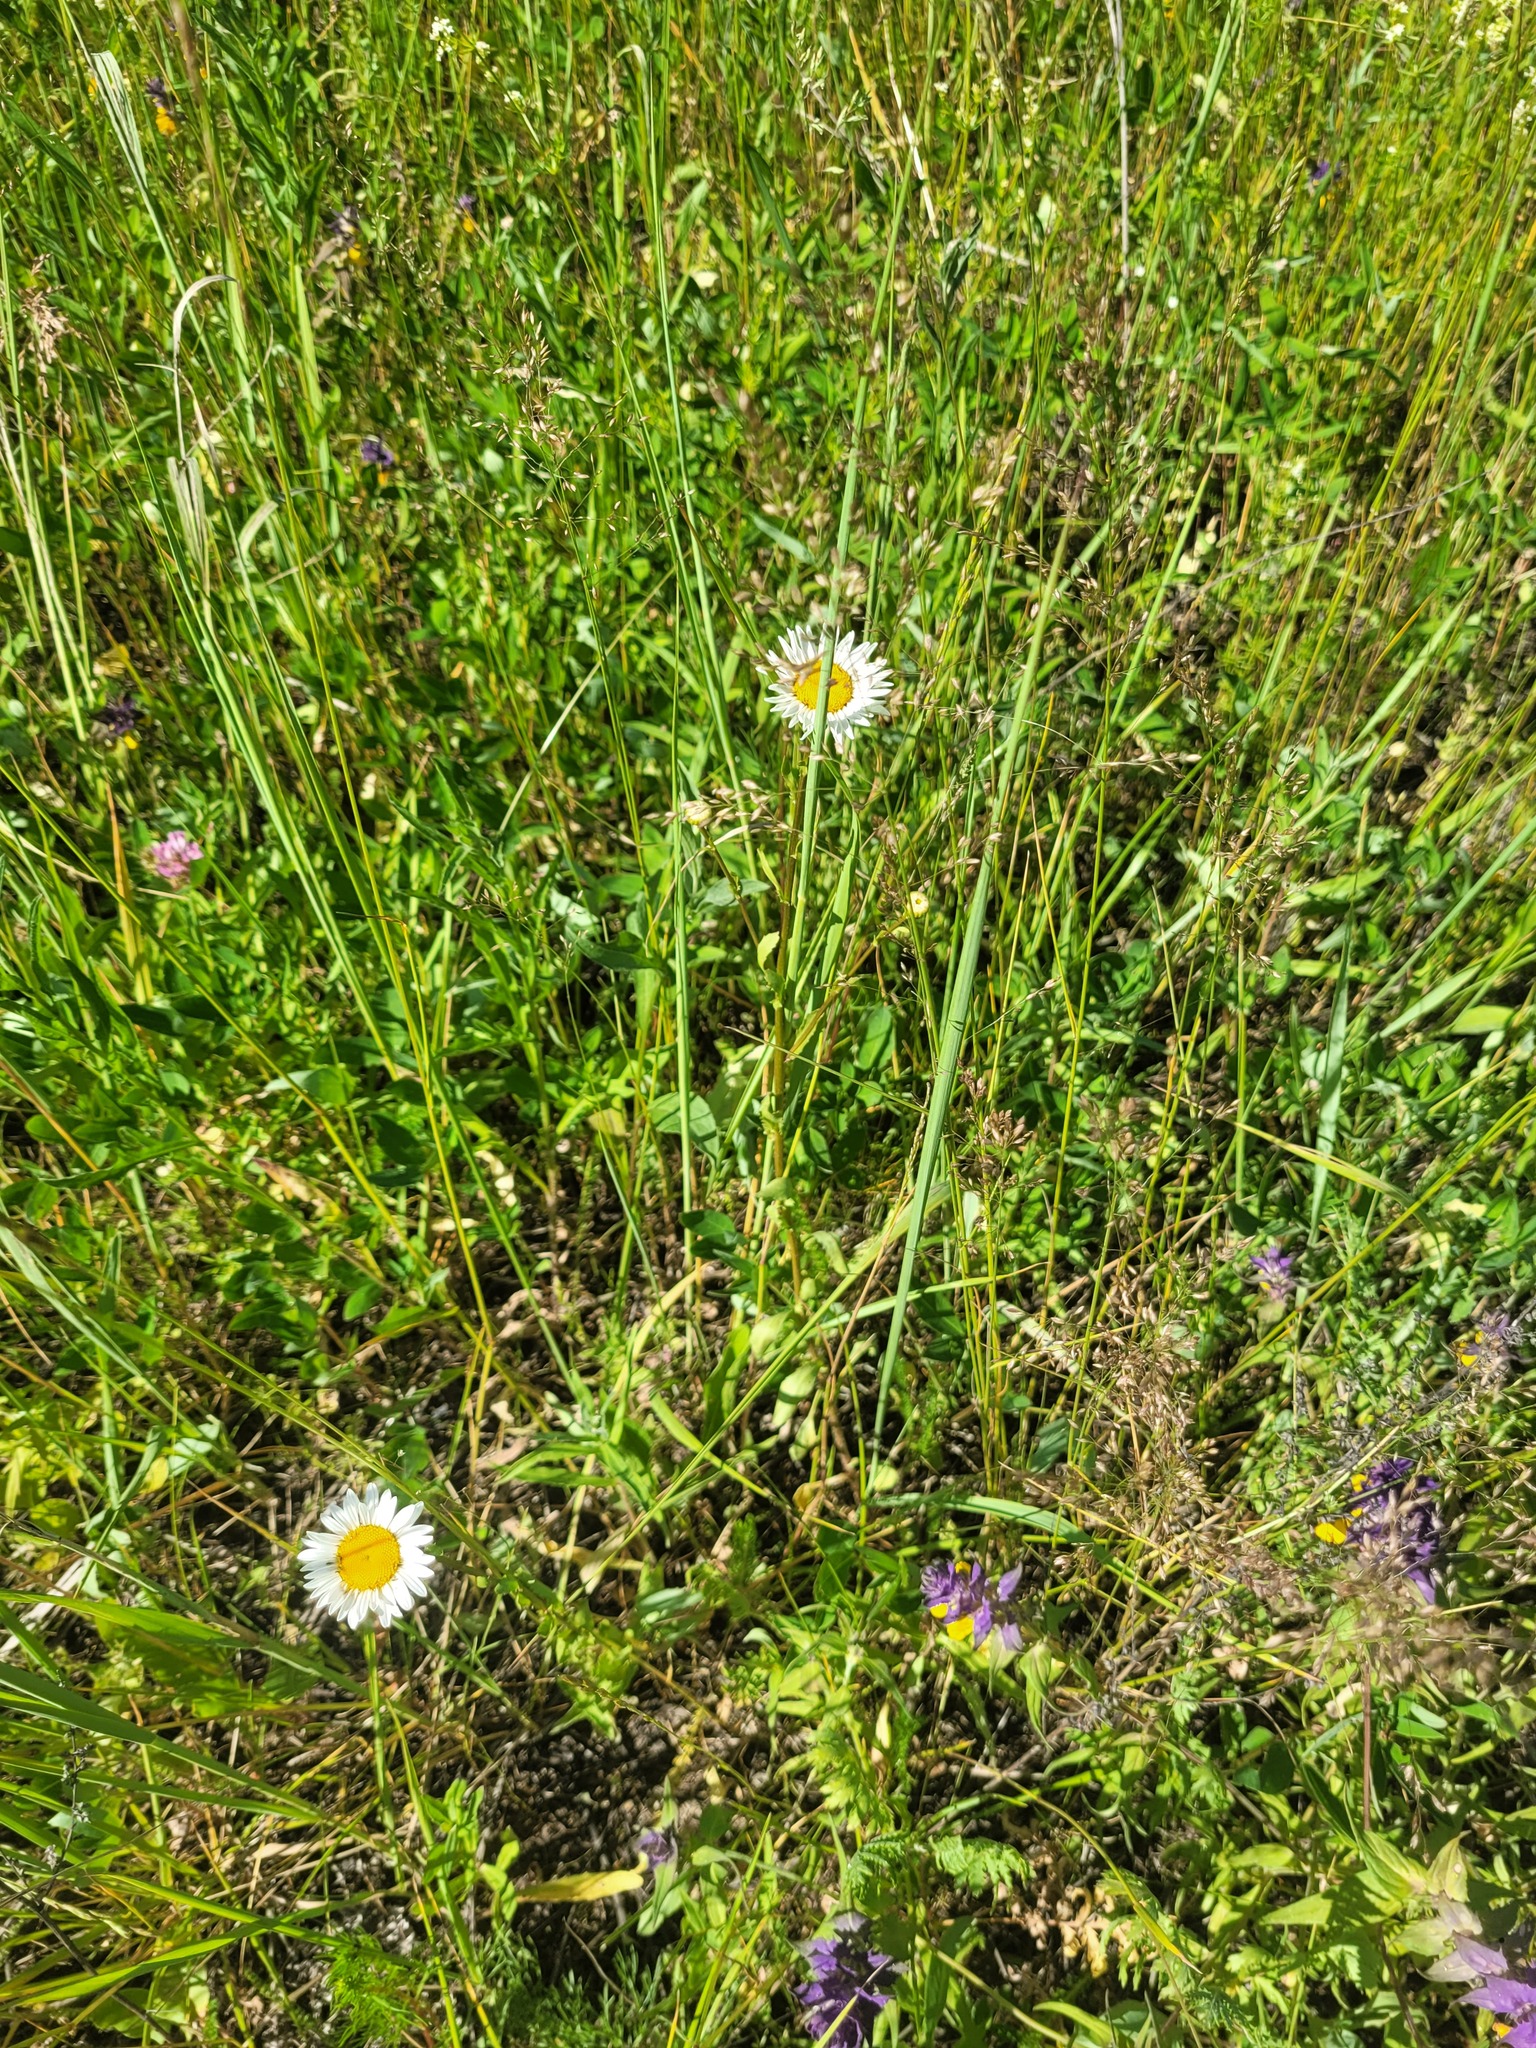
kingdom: Plantae
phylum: Tracheophyta
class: Magnoliopsida
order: Asterales
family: Asteraceae
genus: Leucanthemum
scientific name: Leucanthemum vulgare
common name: Oxeye daisy
